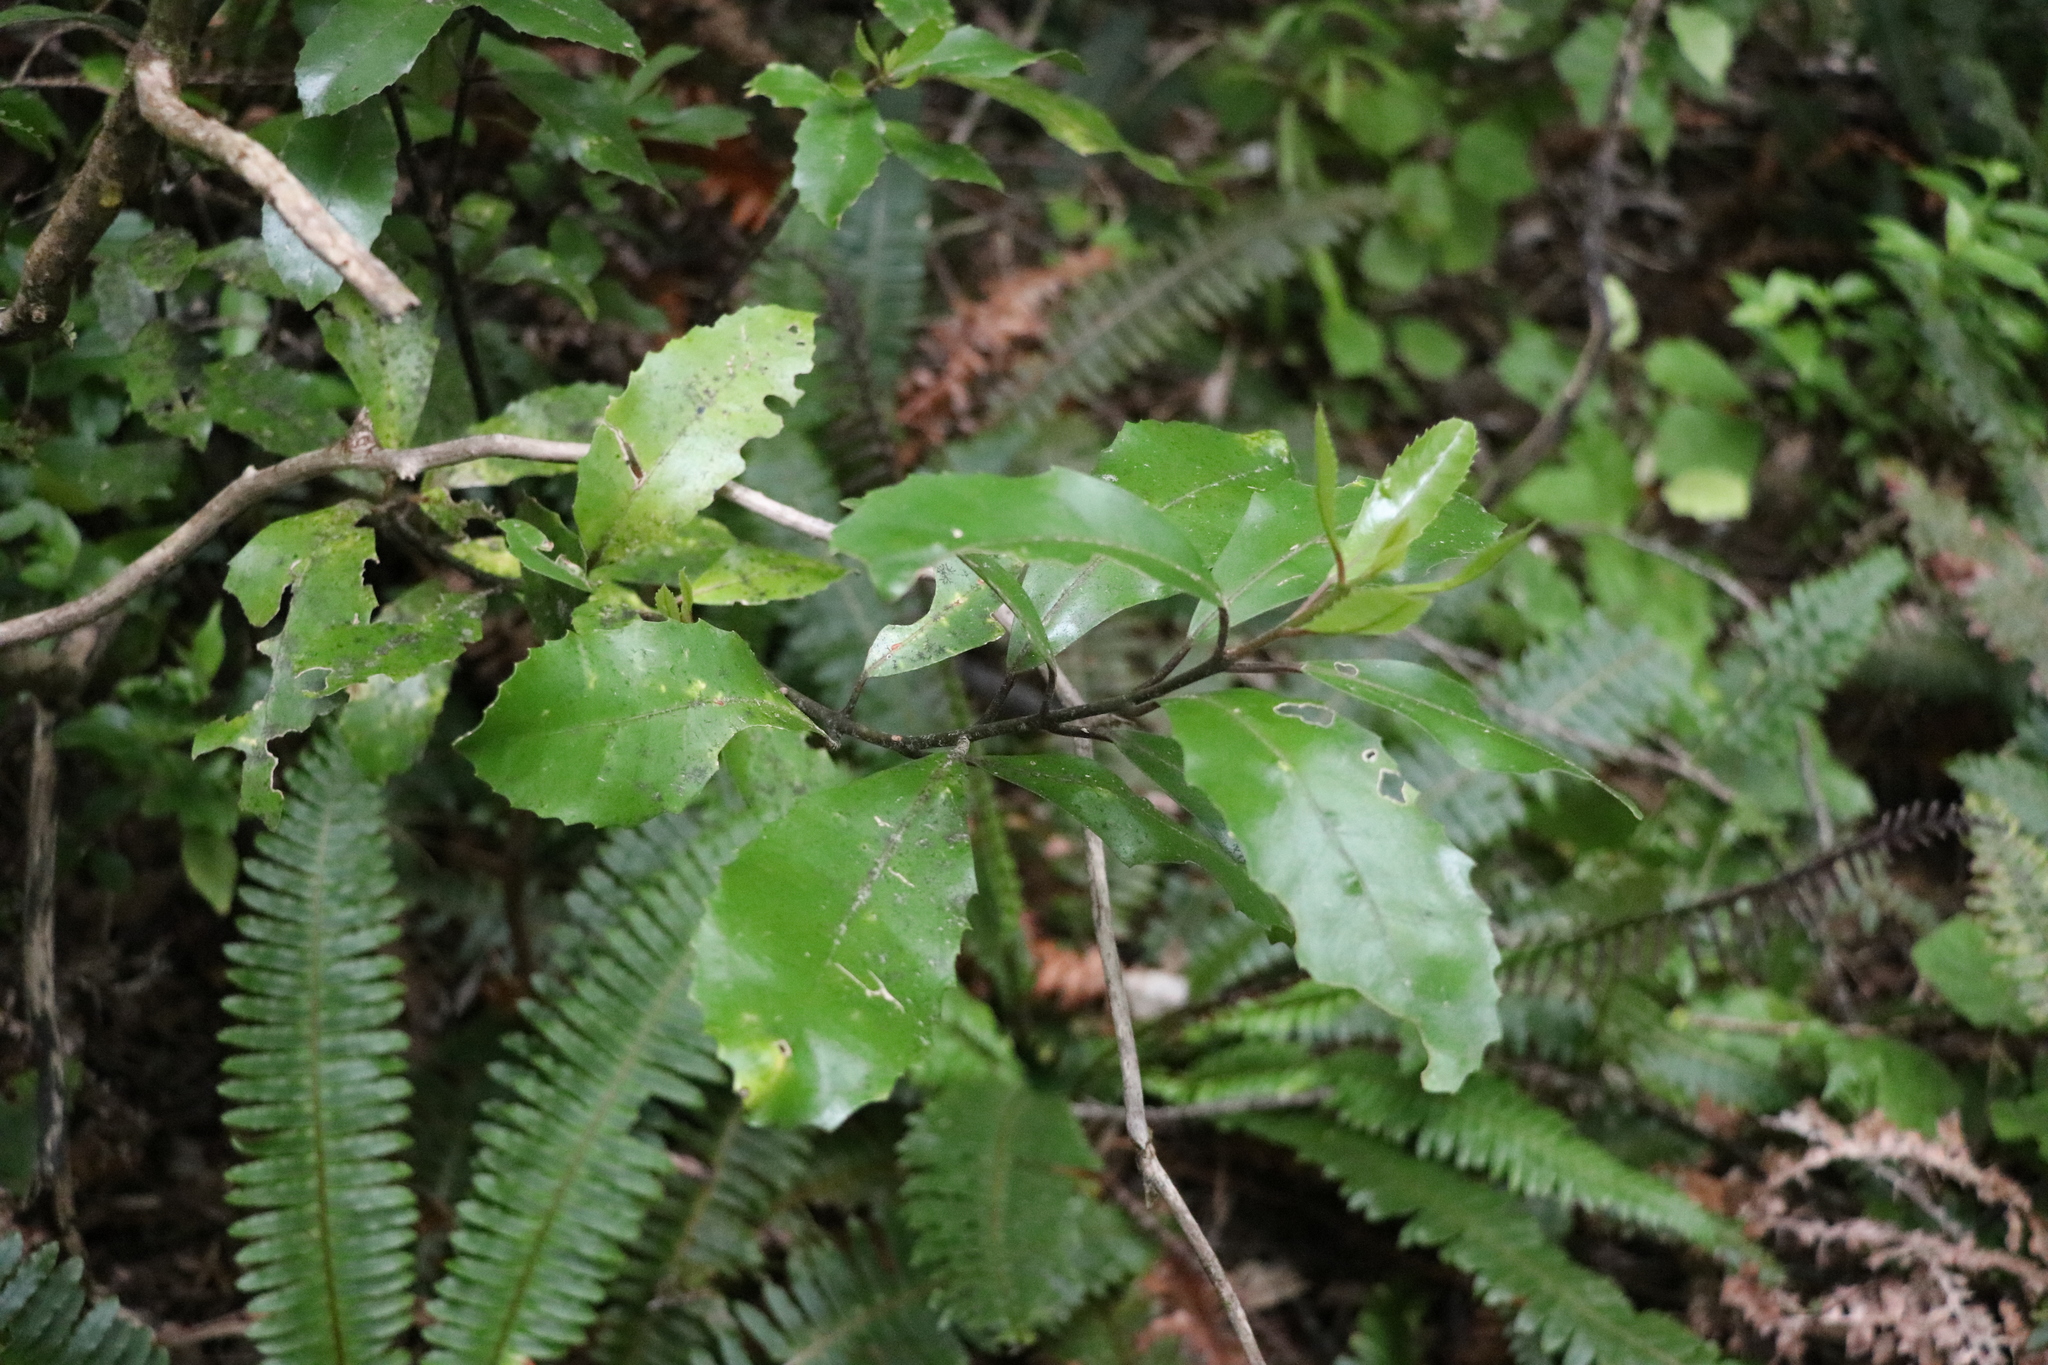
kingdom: Plantae
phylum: Tracheophyta
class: Magnoliopsida
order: Laurales
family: Monimiaceae
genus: Hedycarya
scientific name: Hedycarya arborea
